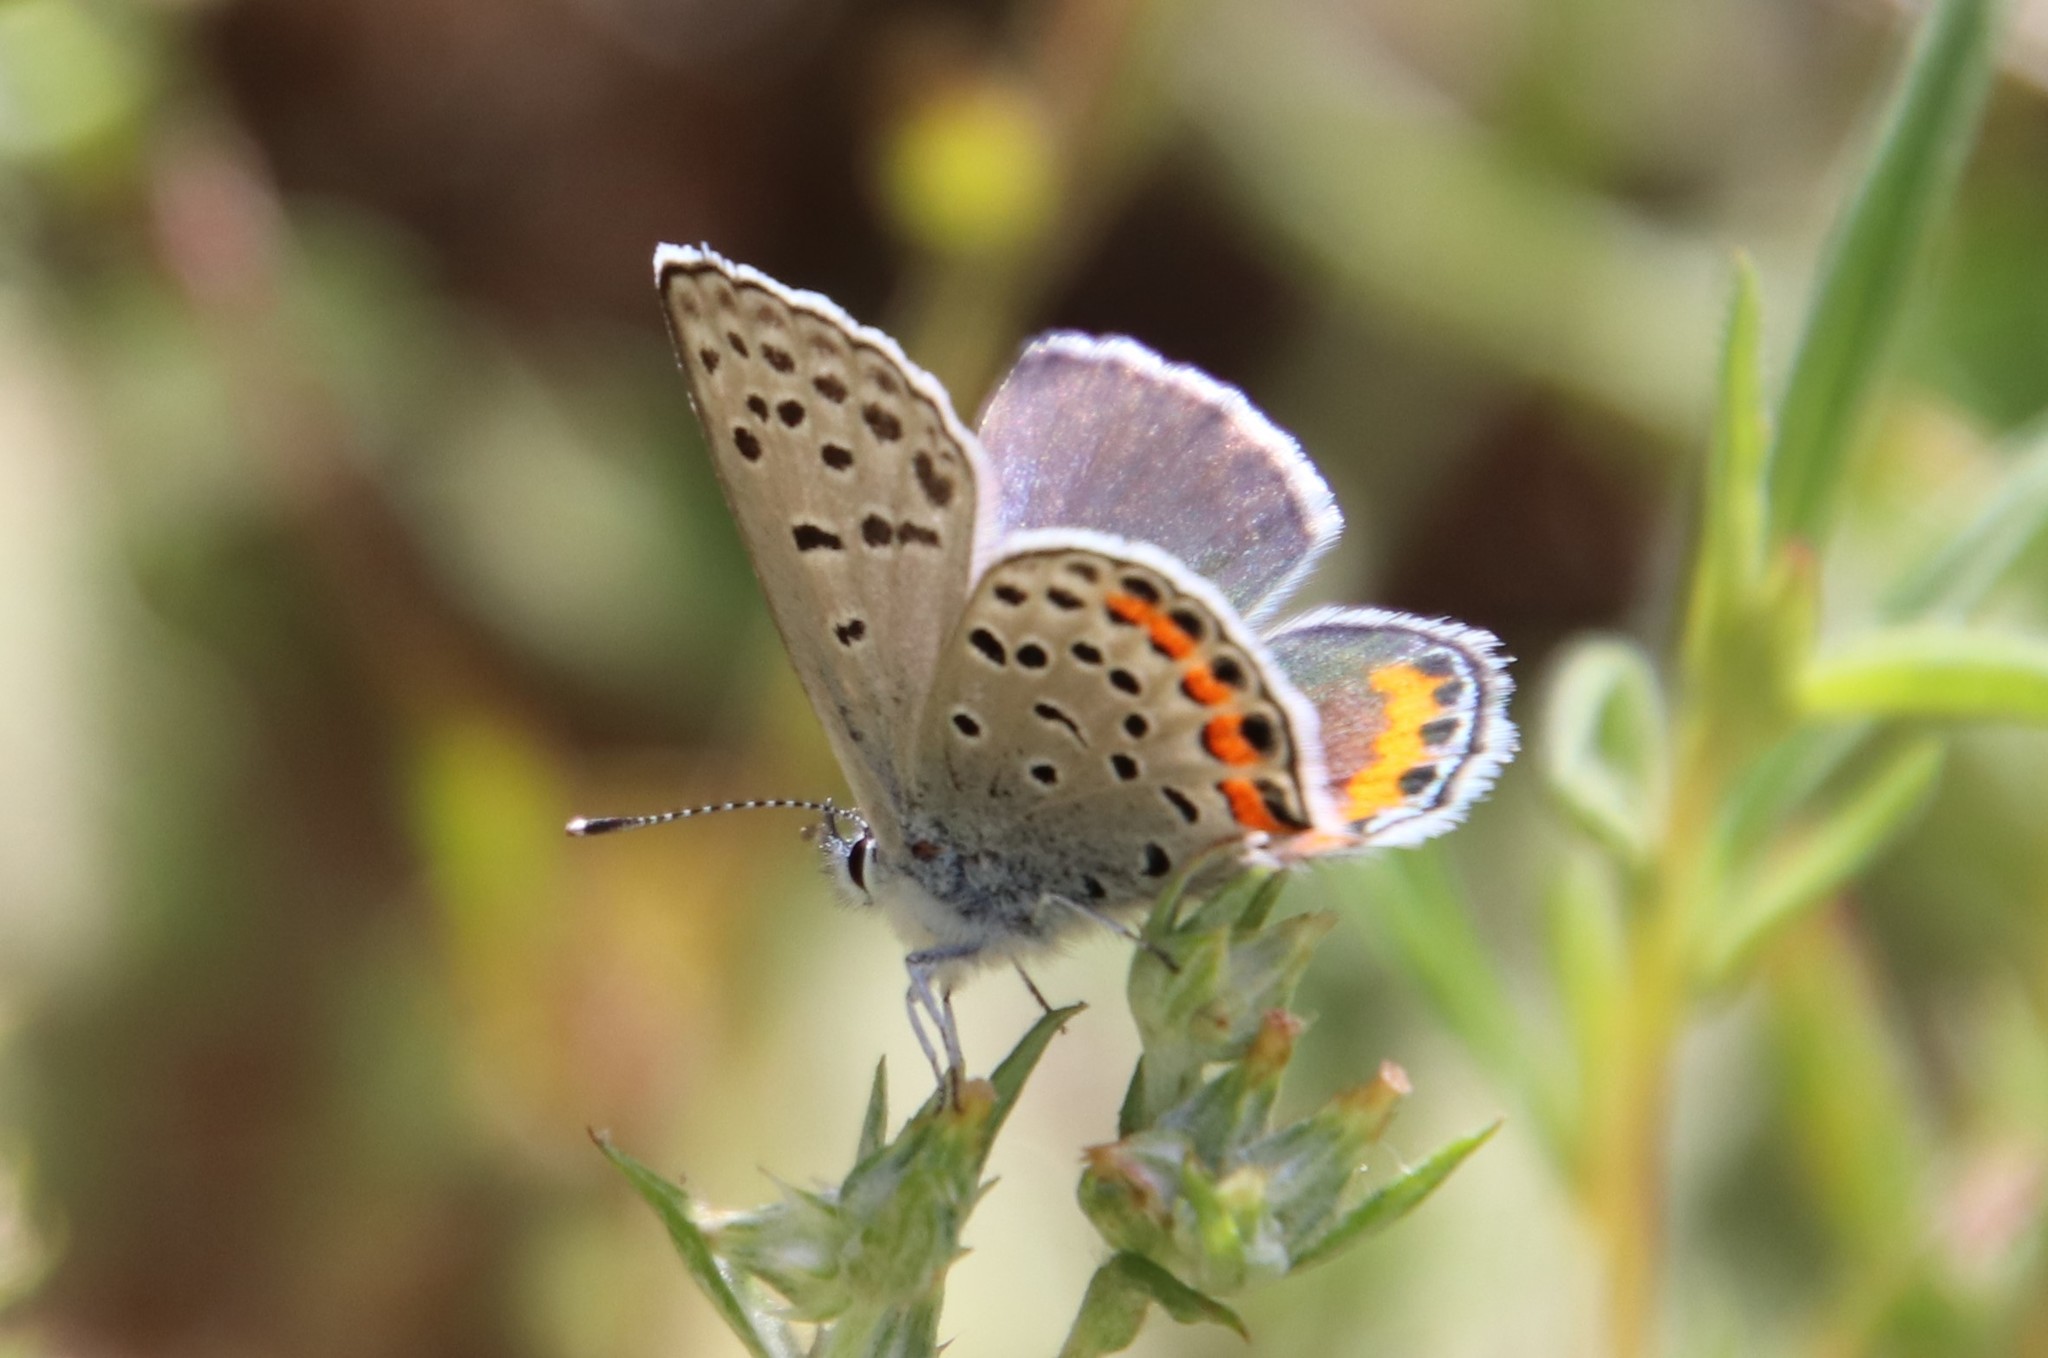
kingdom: Animalia
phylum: Arthropoda
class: Insecta
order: Lepidoptera
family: Lycaenidae
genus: Icaricia
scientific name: Icaricia acmon
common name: Acmon blue
